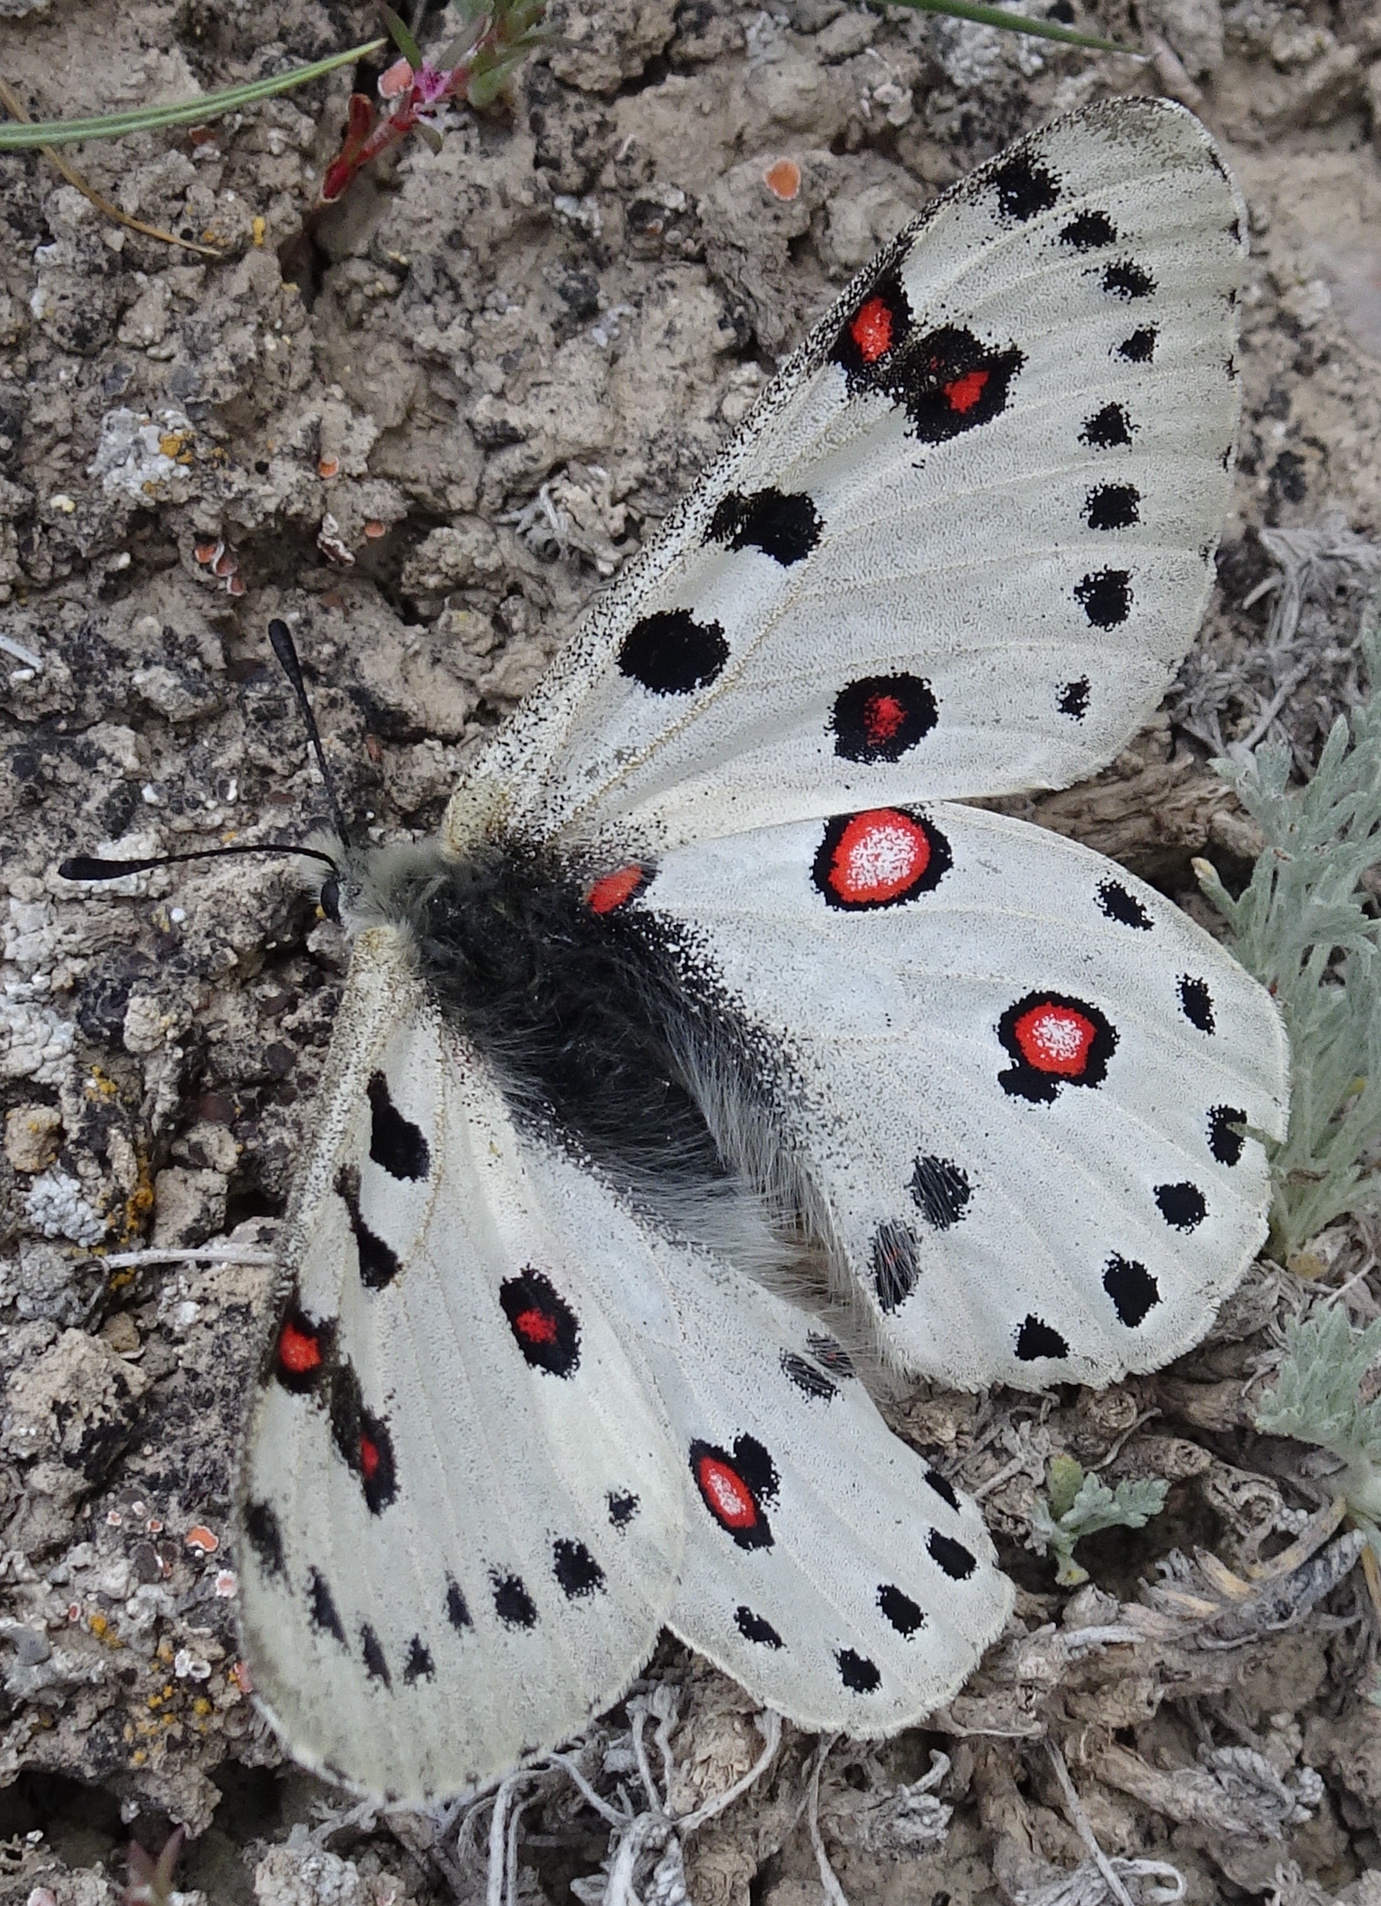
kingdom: Animalia
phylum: Arthropoda
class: Insecta
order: Lepidoptera
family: Papilionidae
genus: Parnassius
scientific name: Parnassius apollonius
